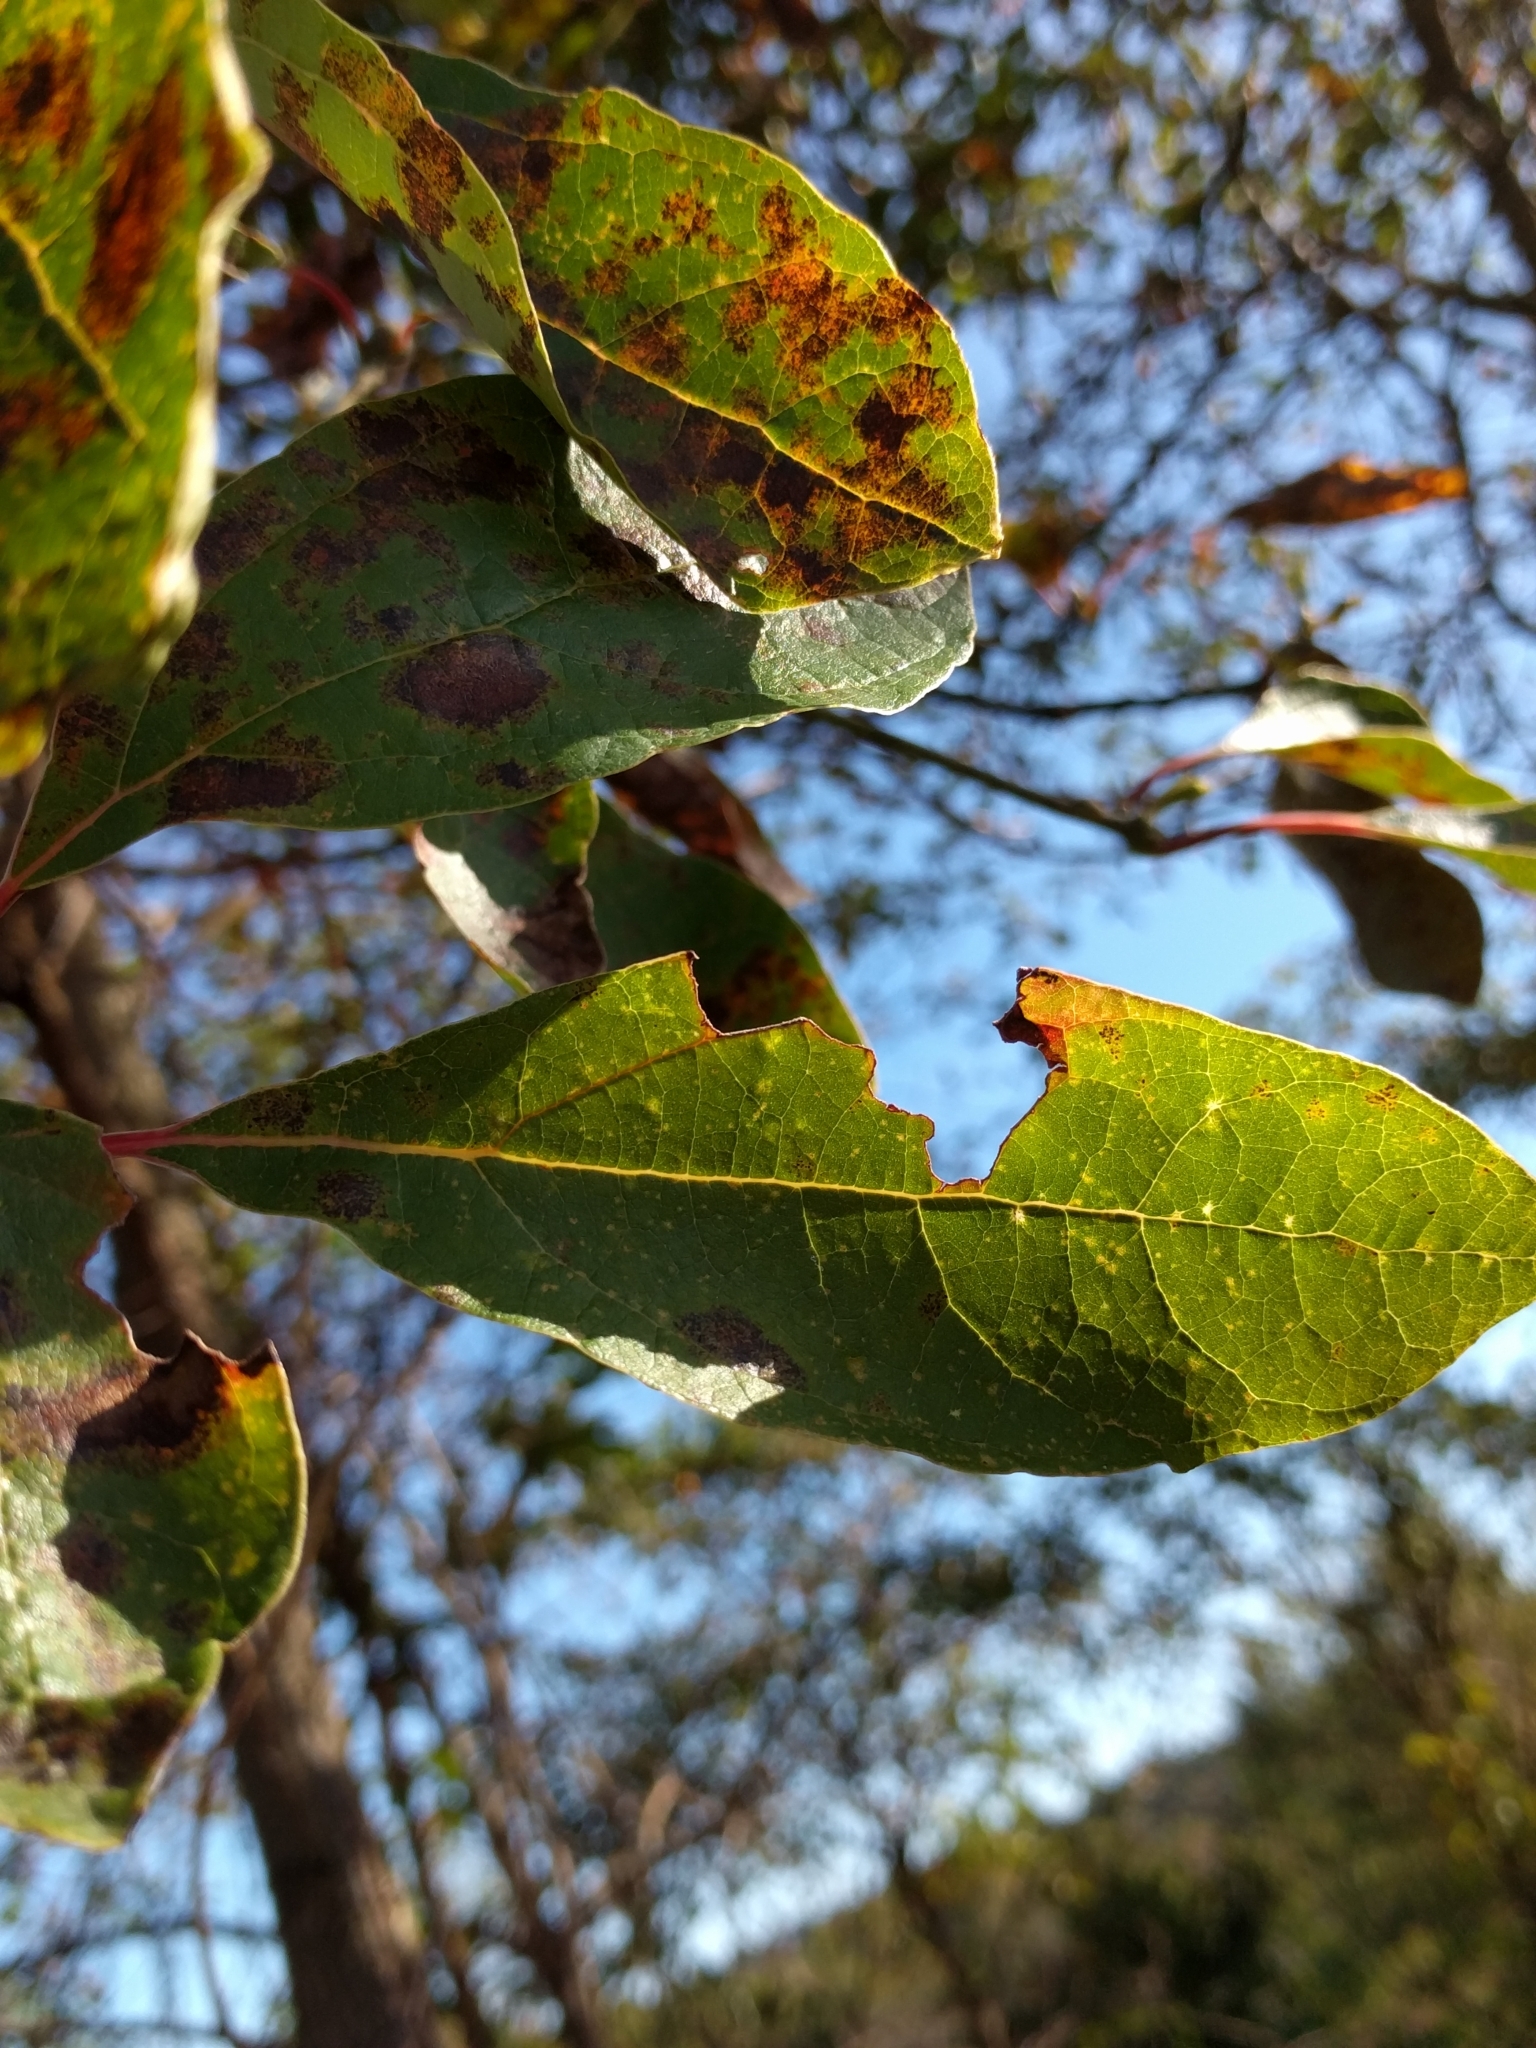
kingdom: Plantae
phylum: Tracheophyta
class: Magnoliopsida
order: Laurales
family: Lauraceae
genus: Sassafras
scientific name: Sassafras albidum
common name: Sassafras
